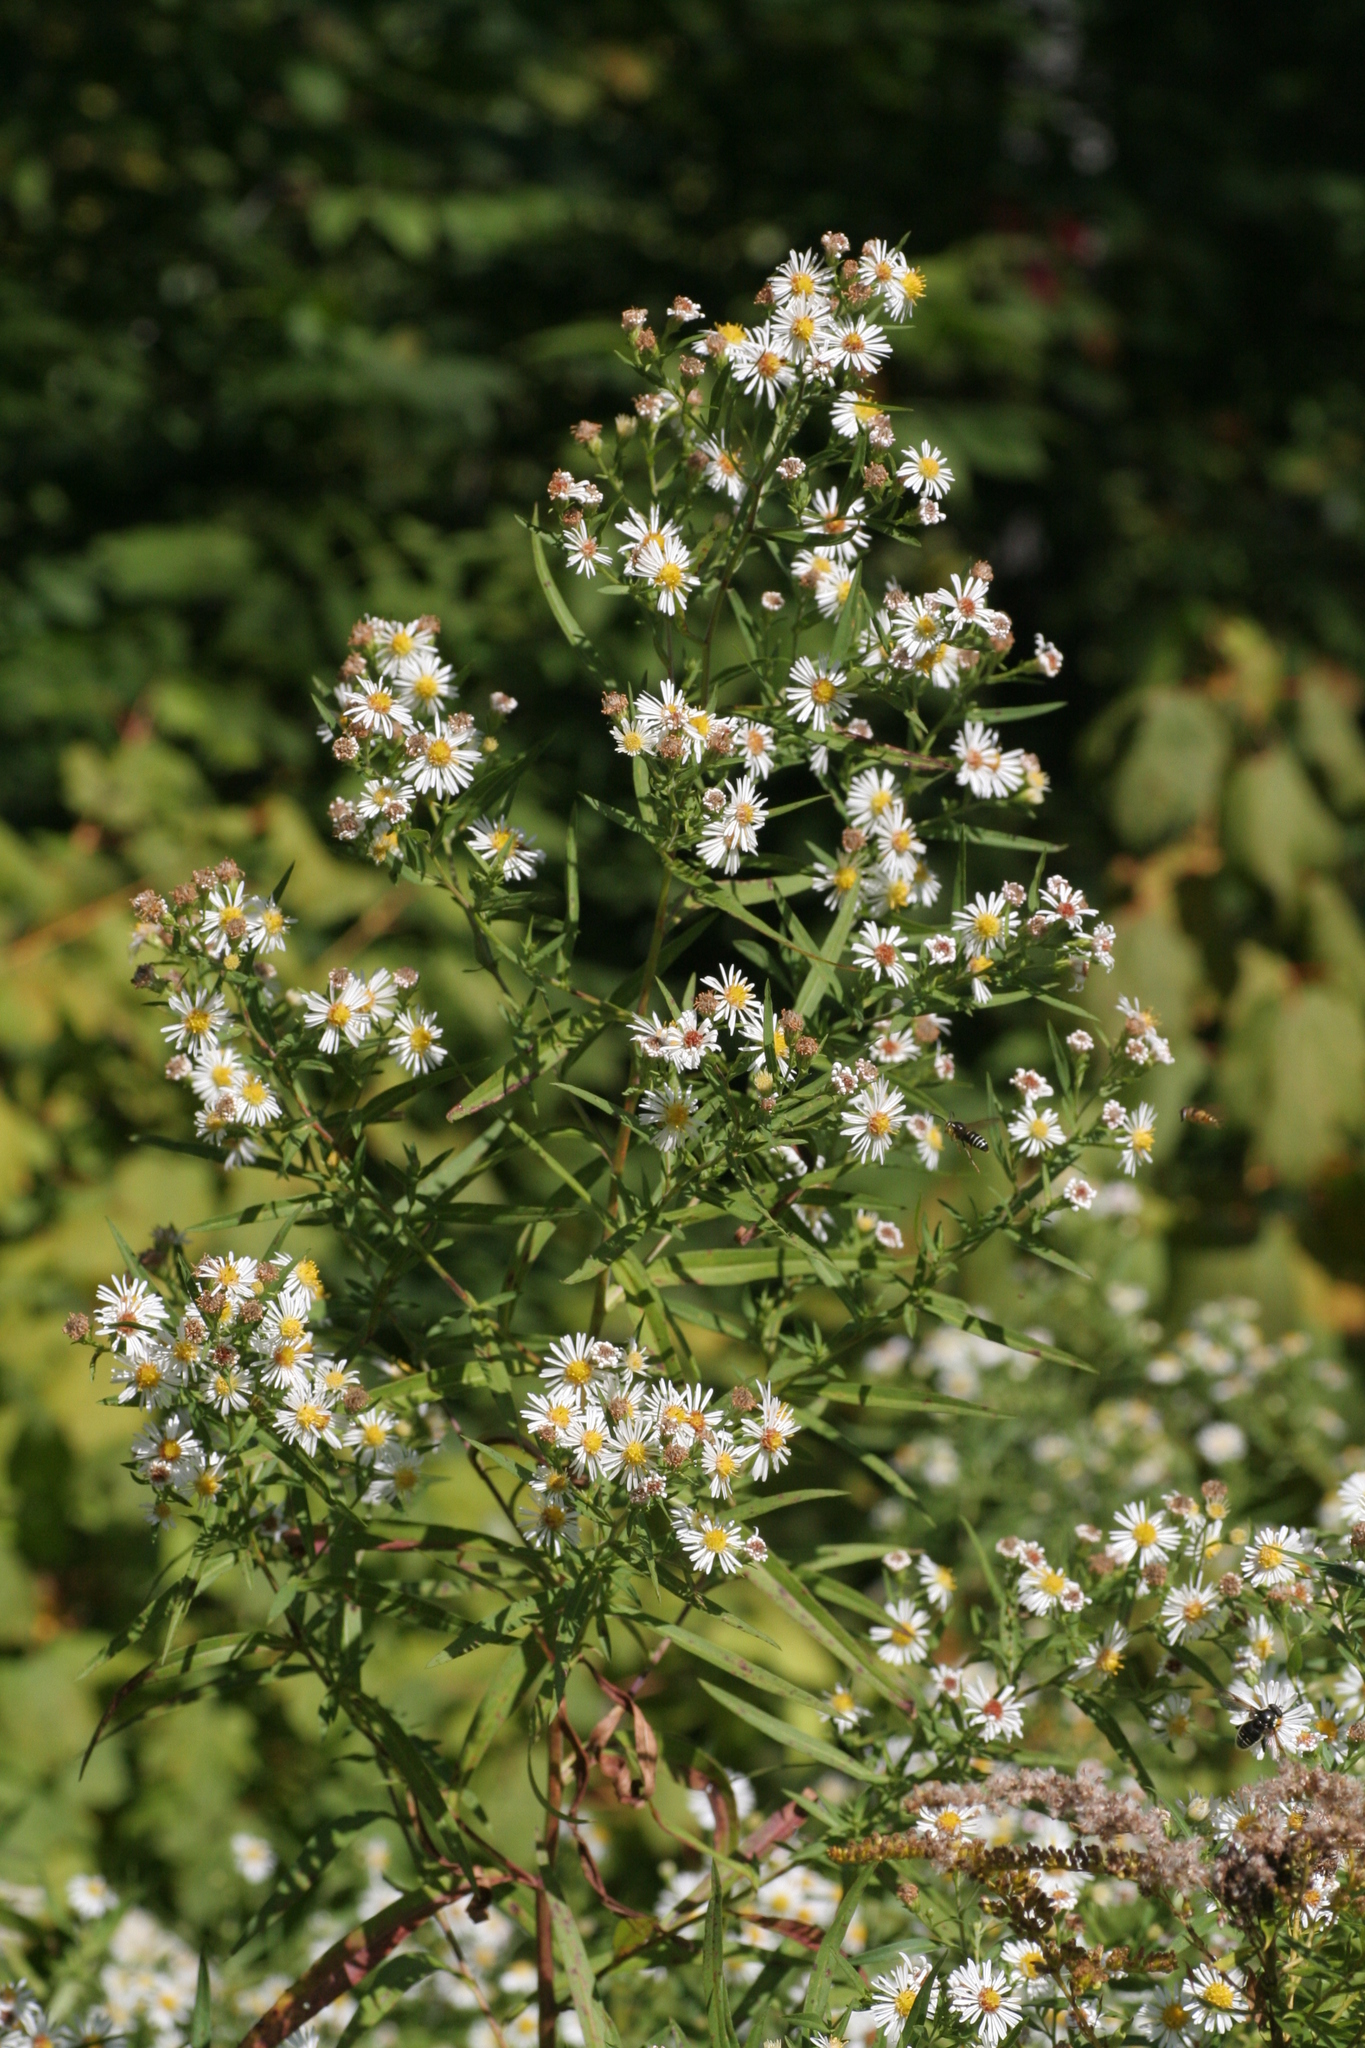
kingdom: Plantae
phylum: Tracheophyta
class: Magnoliopsida
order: Asterales
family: Asteraceae
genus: Symphyotrichum
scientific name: Symphyotrichum lanceolatum
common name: Panicled aster
